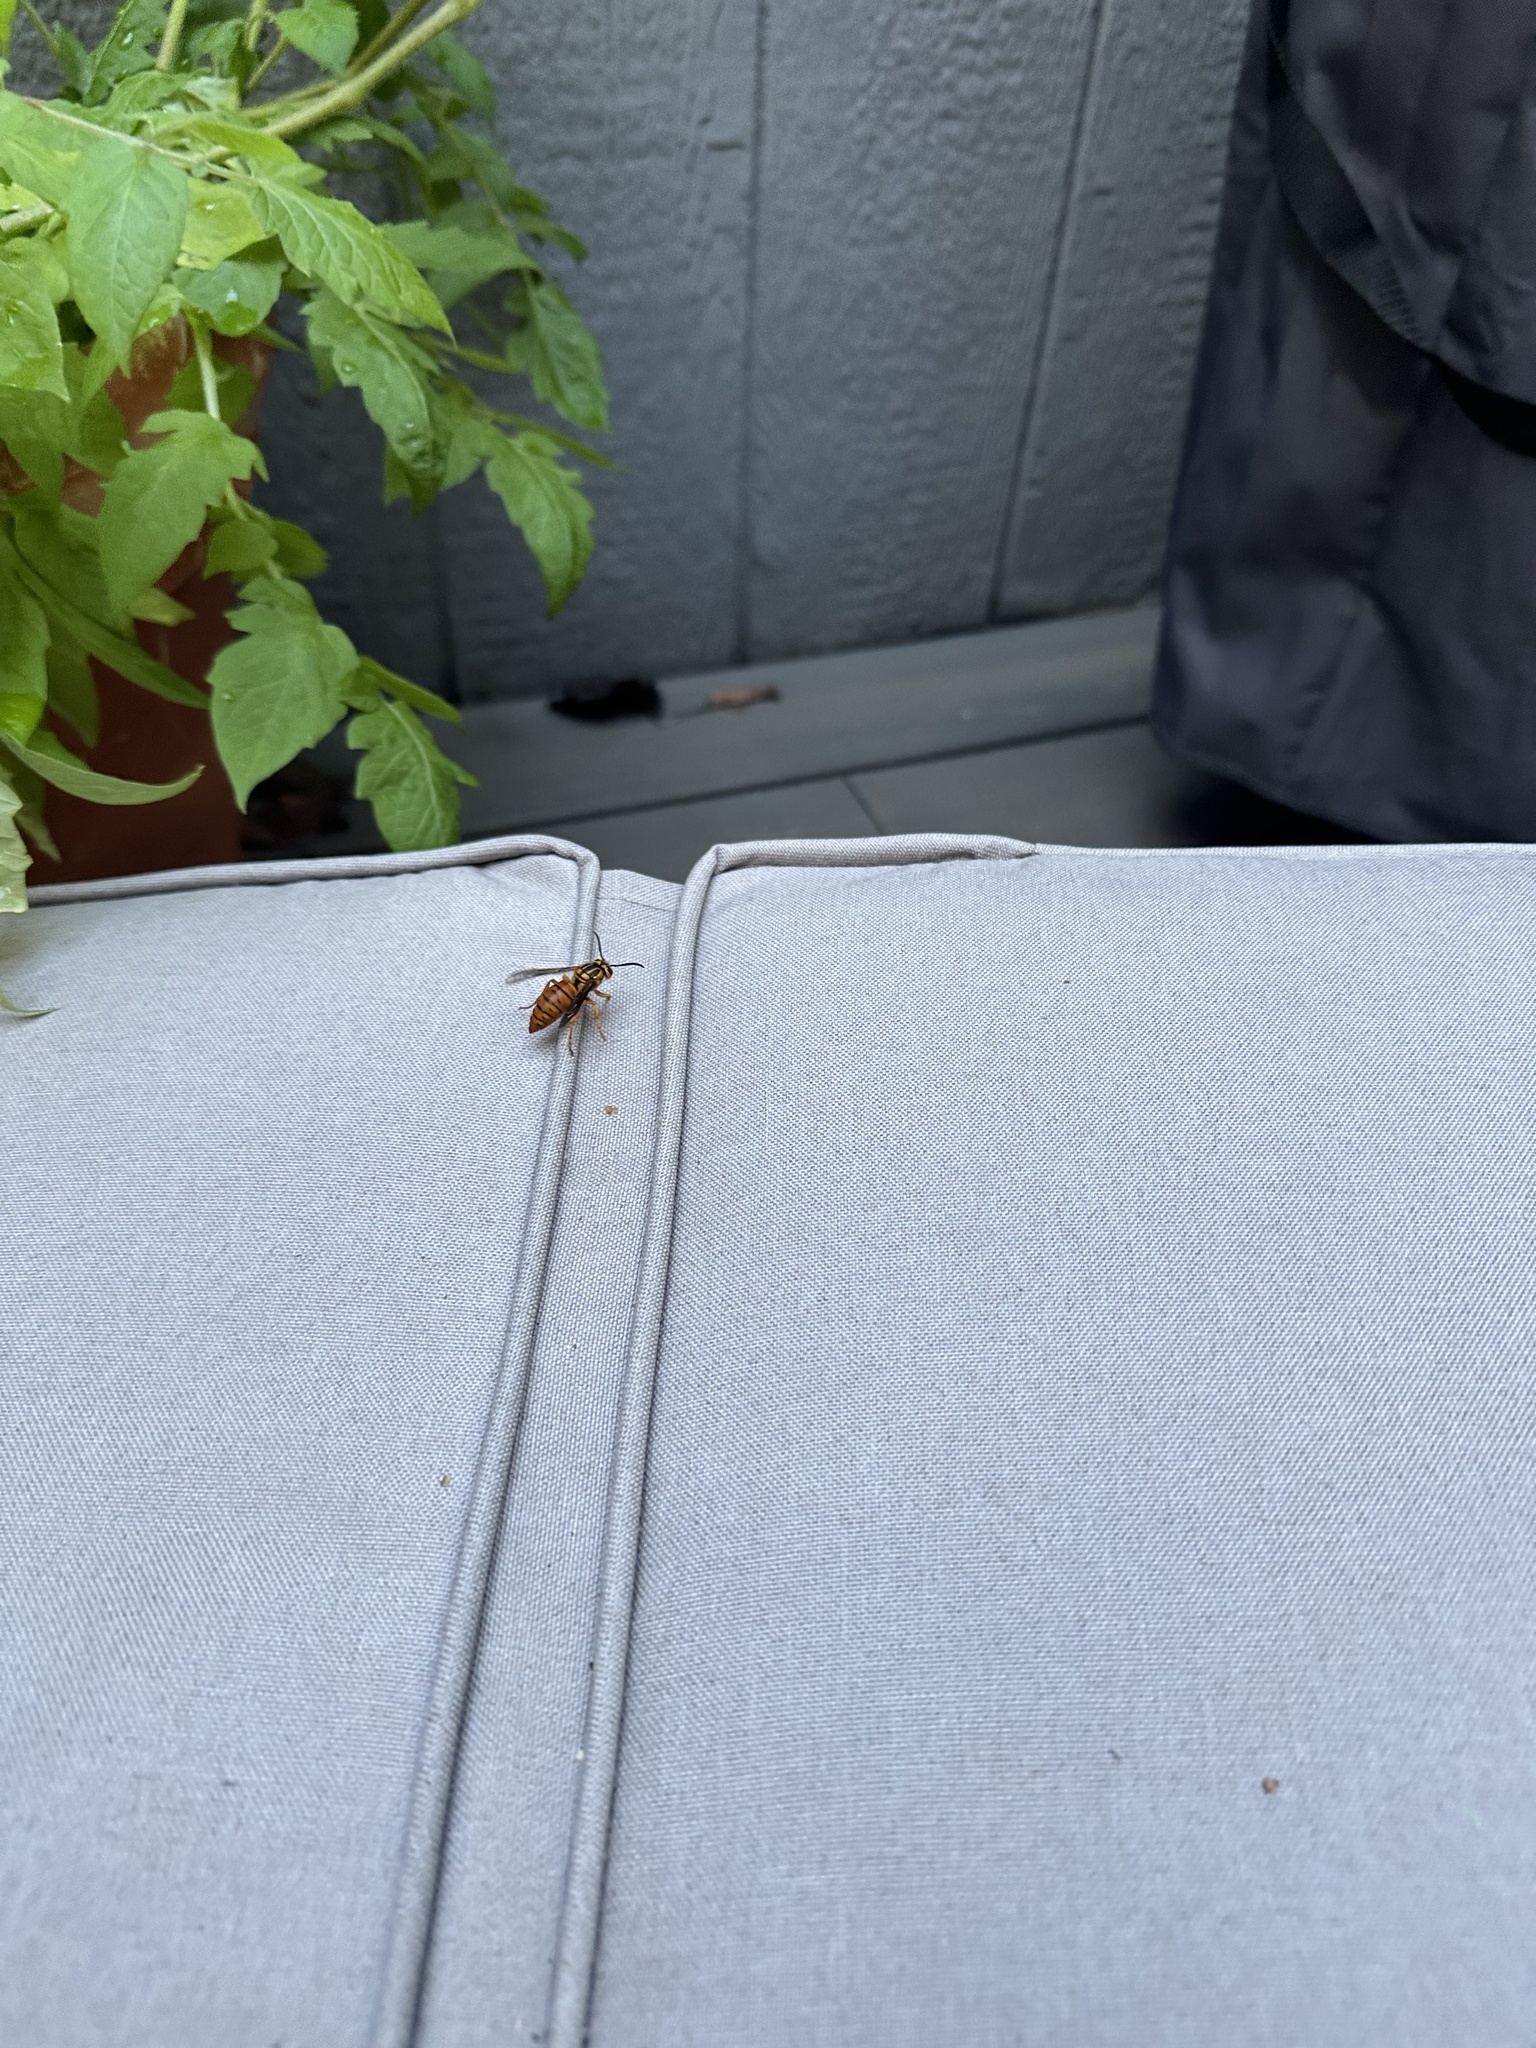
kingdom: Animalia
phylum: Arthropoda
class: Insecta
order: Hymenoptera
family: Vespidae
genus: Vespula
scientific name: Vespula squamosa
